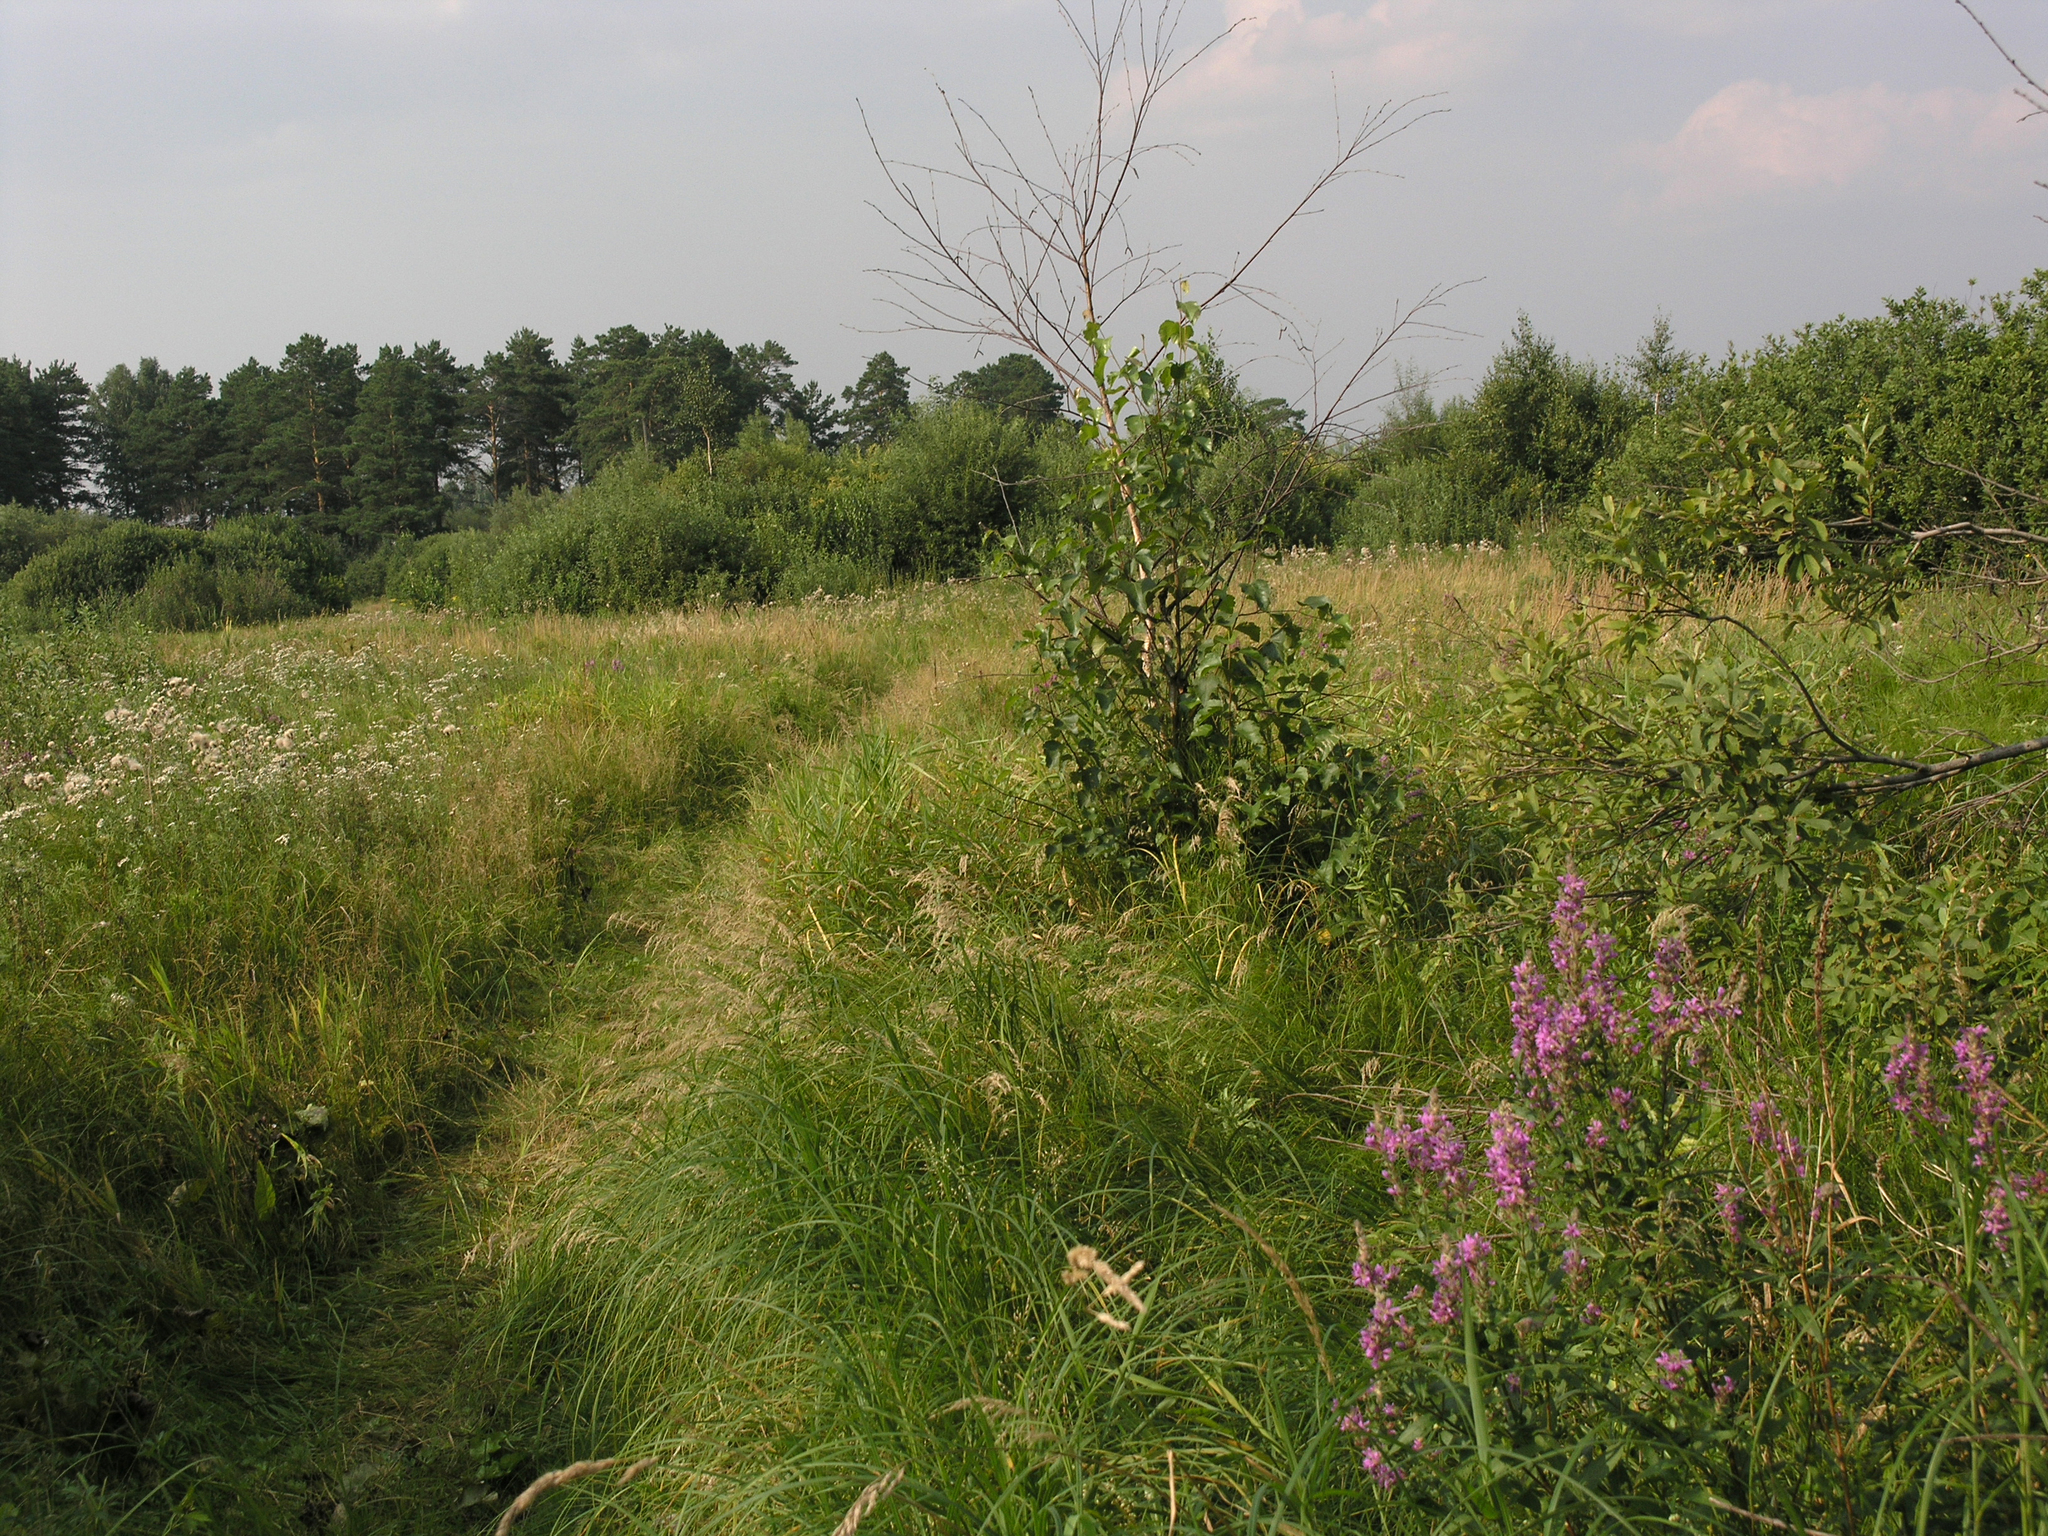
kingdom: Plantae
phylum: Tracheophyta
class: Magnoliopsida
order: Myrtales
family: Lythraceae
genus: Lythrum
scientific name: Lythrum salicaria
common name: Purple loosestrife
